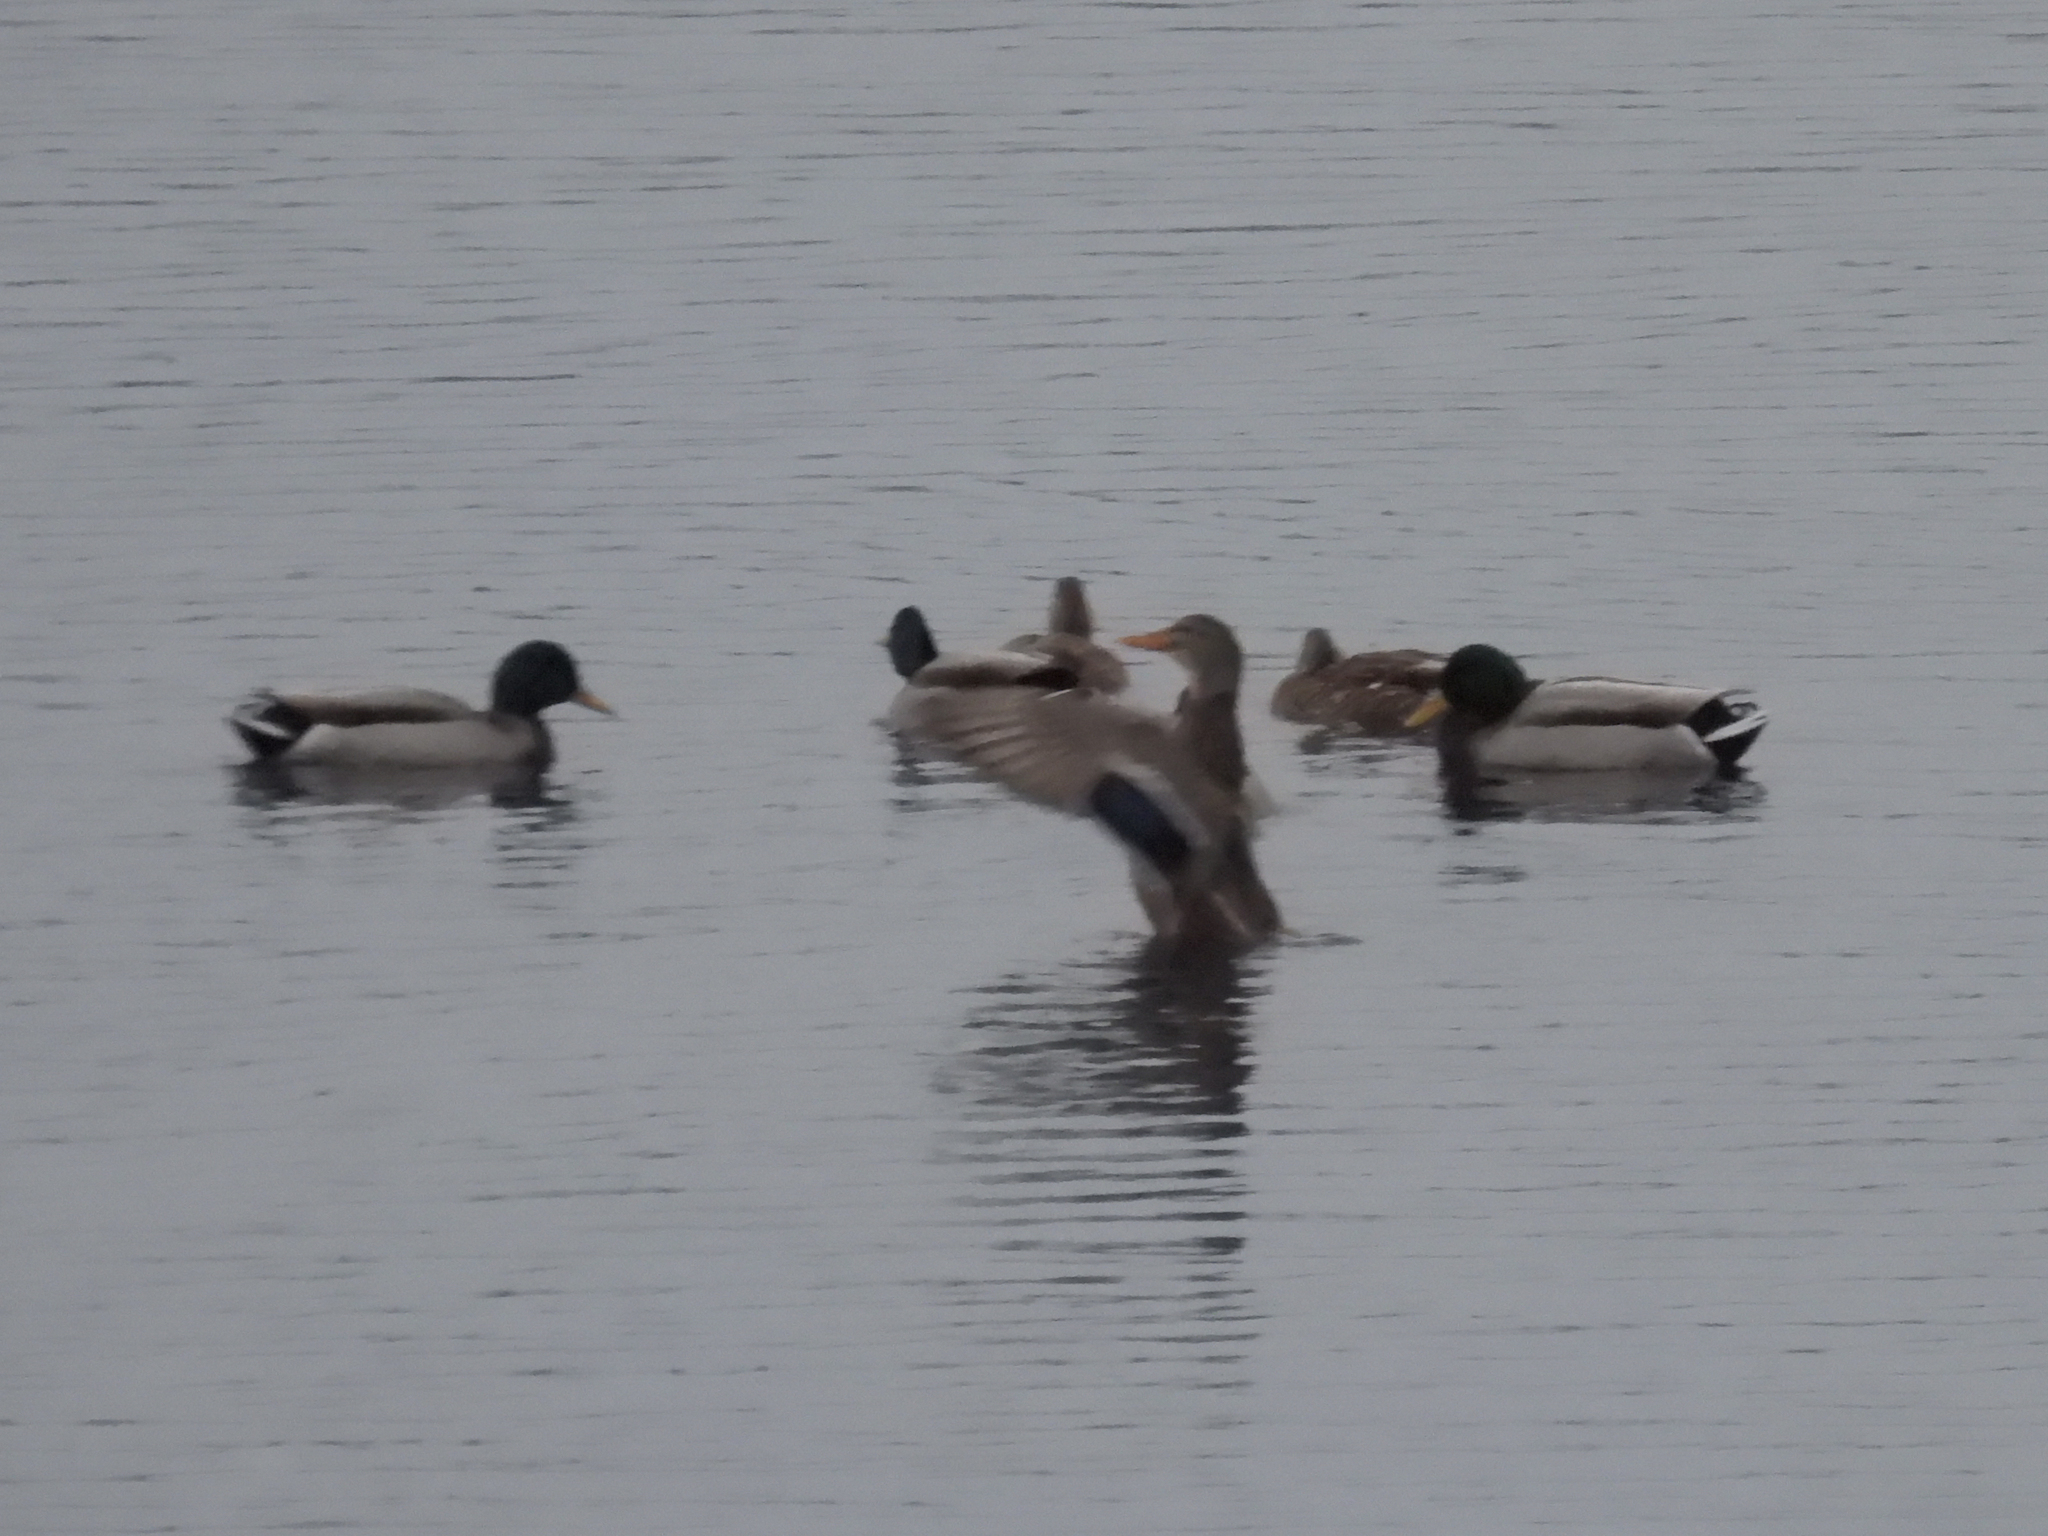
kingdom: Animalia
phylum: Chordata
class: Aves
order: Anseriformes
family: Anatidae
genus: Anas
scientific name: Anas platyrhynchos
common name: Mallard
